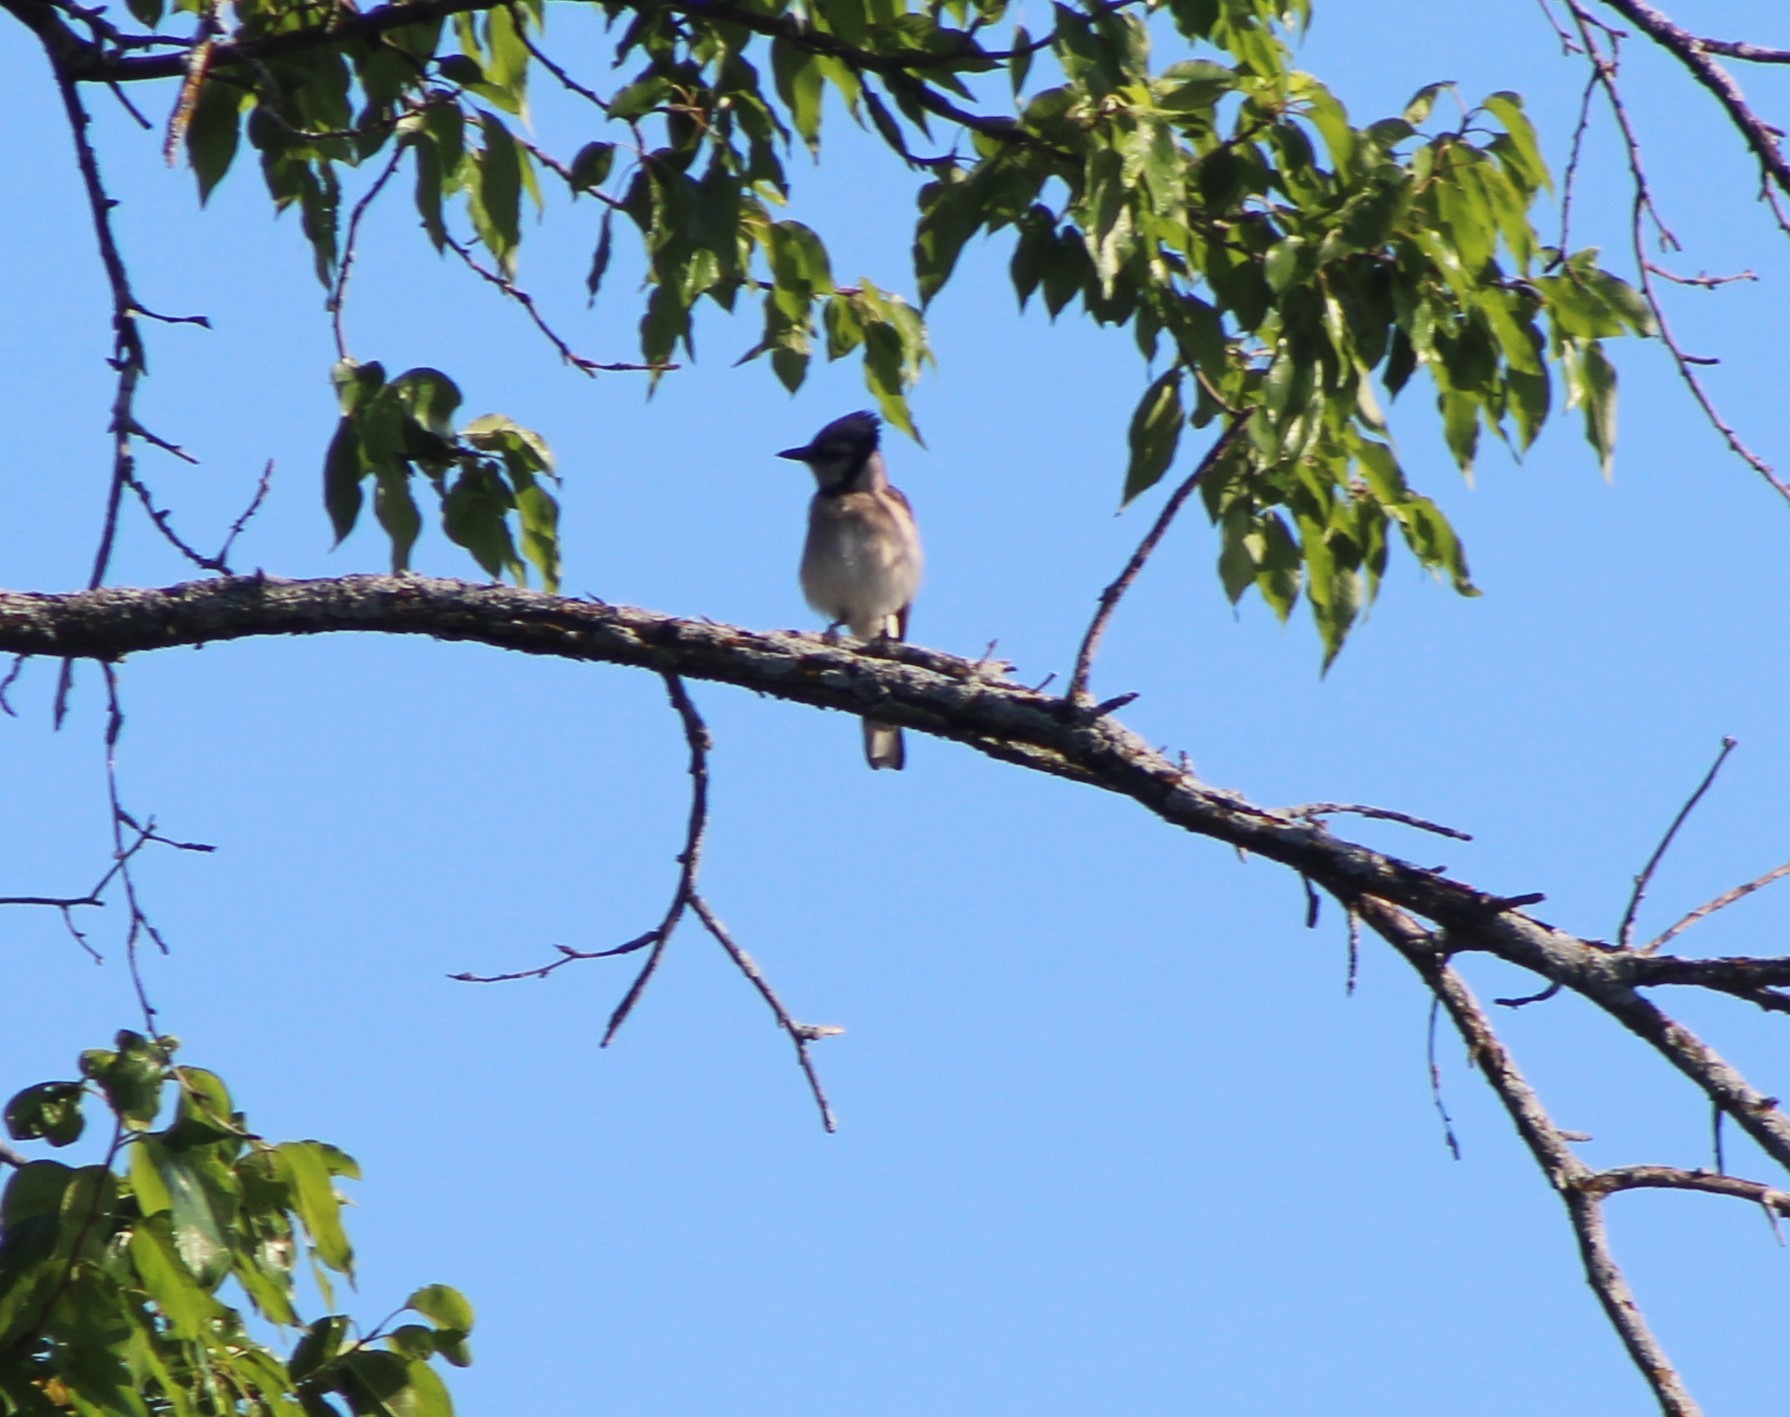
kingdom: Animalia
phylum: Chordata
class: Aves
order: Passeriformes
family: Corvidae
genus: Cyanocitta
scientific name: Cyanocitta cristata
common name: Blue jay
